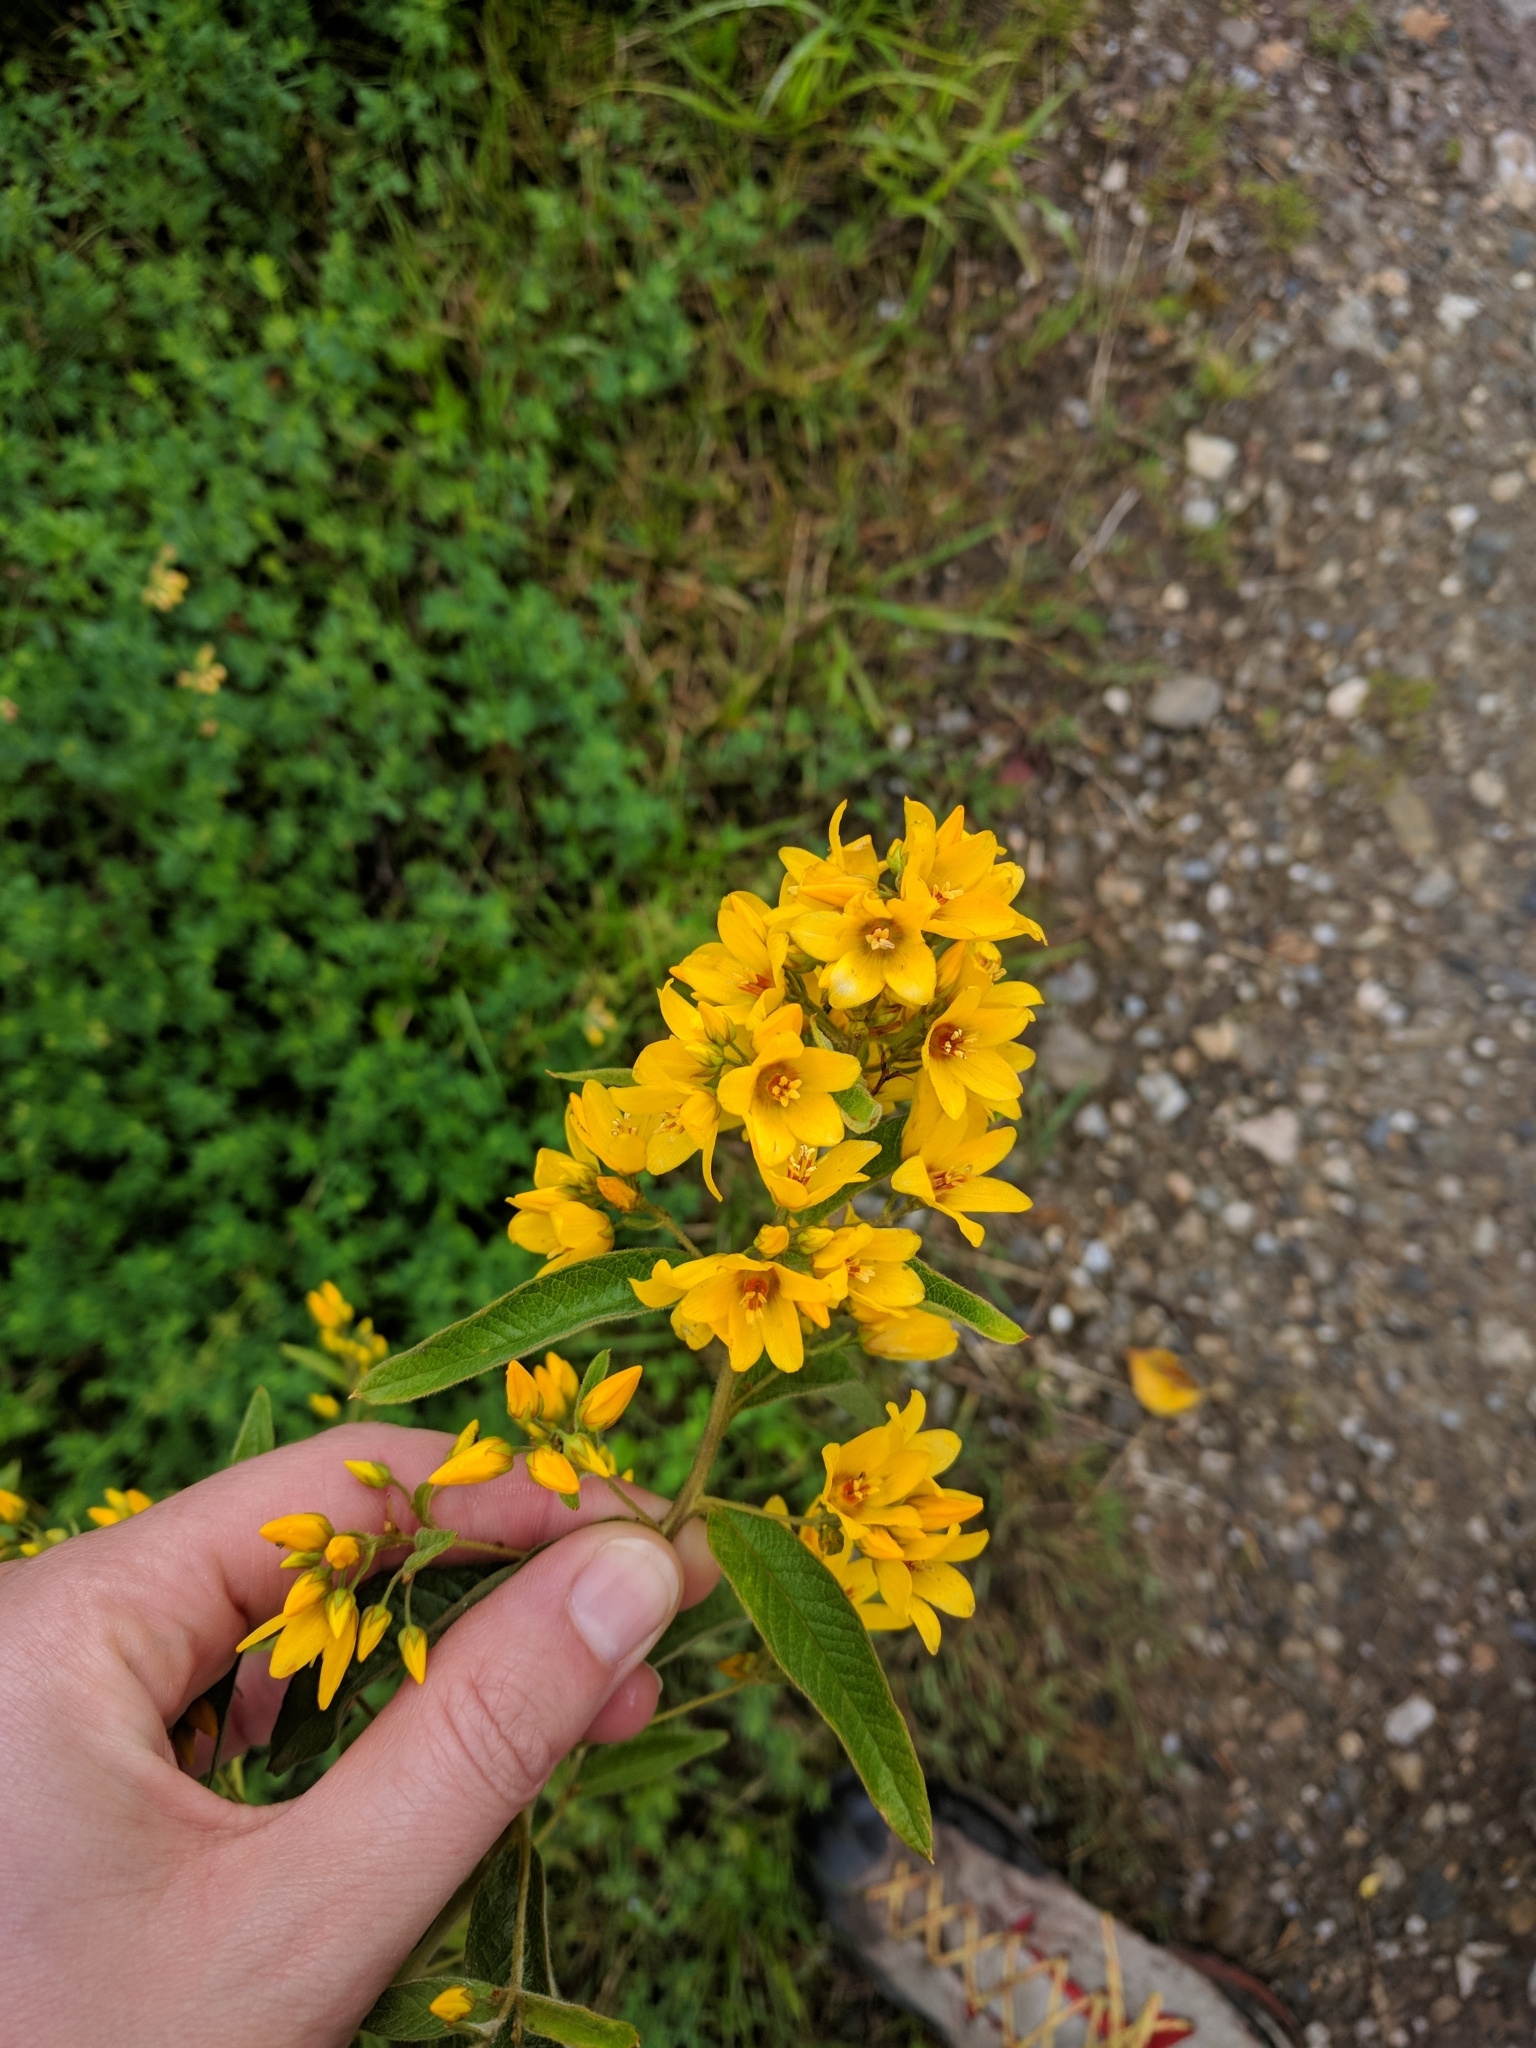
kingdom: Plantae
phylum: Tracheophyta
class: Magnoliopsida
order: Ericales
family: Primulaceae
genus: Lysimachia
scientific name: Lysimachia vulgaris
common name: Yellow loosestrife
